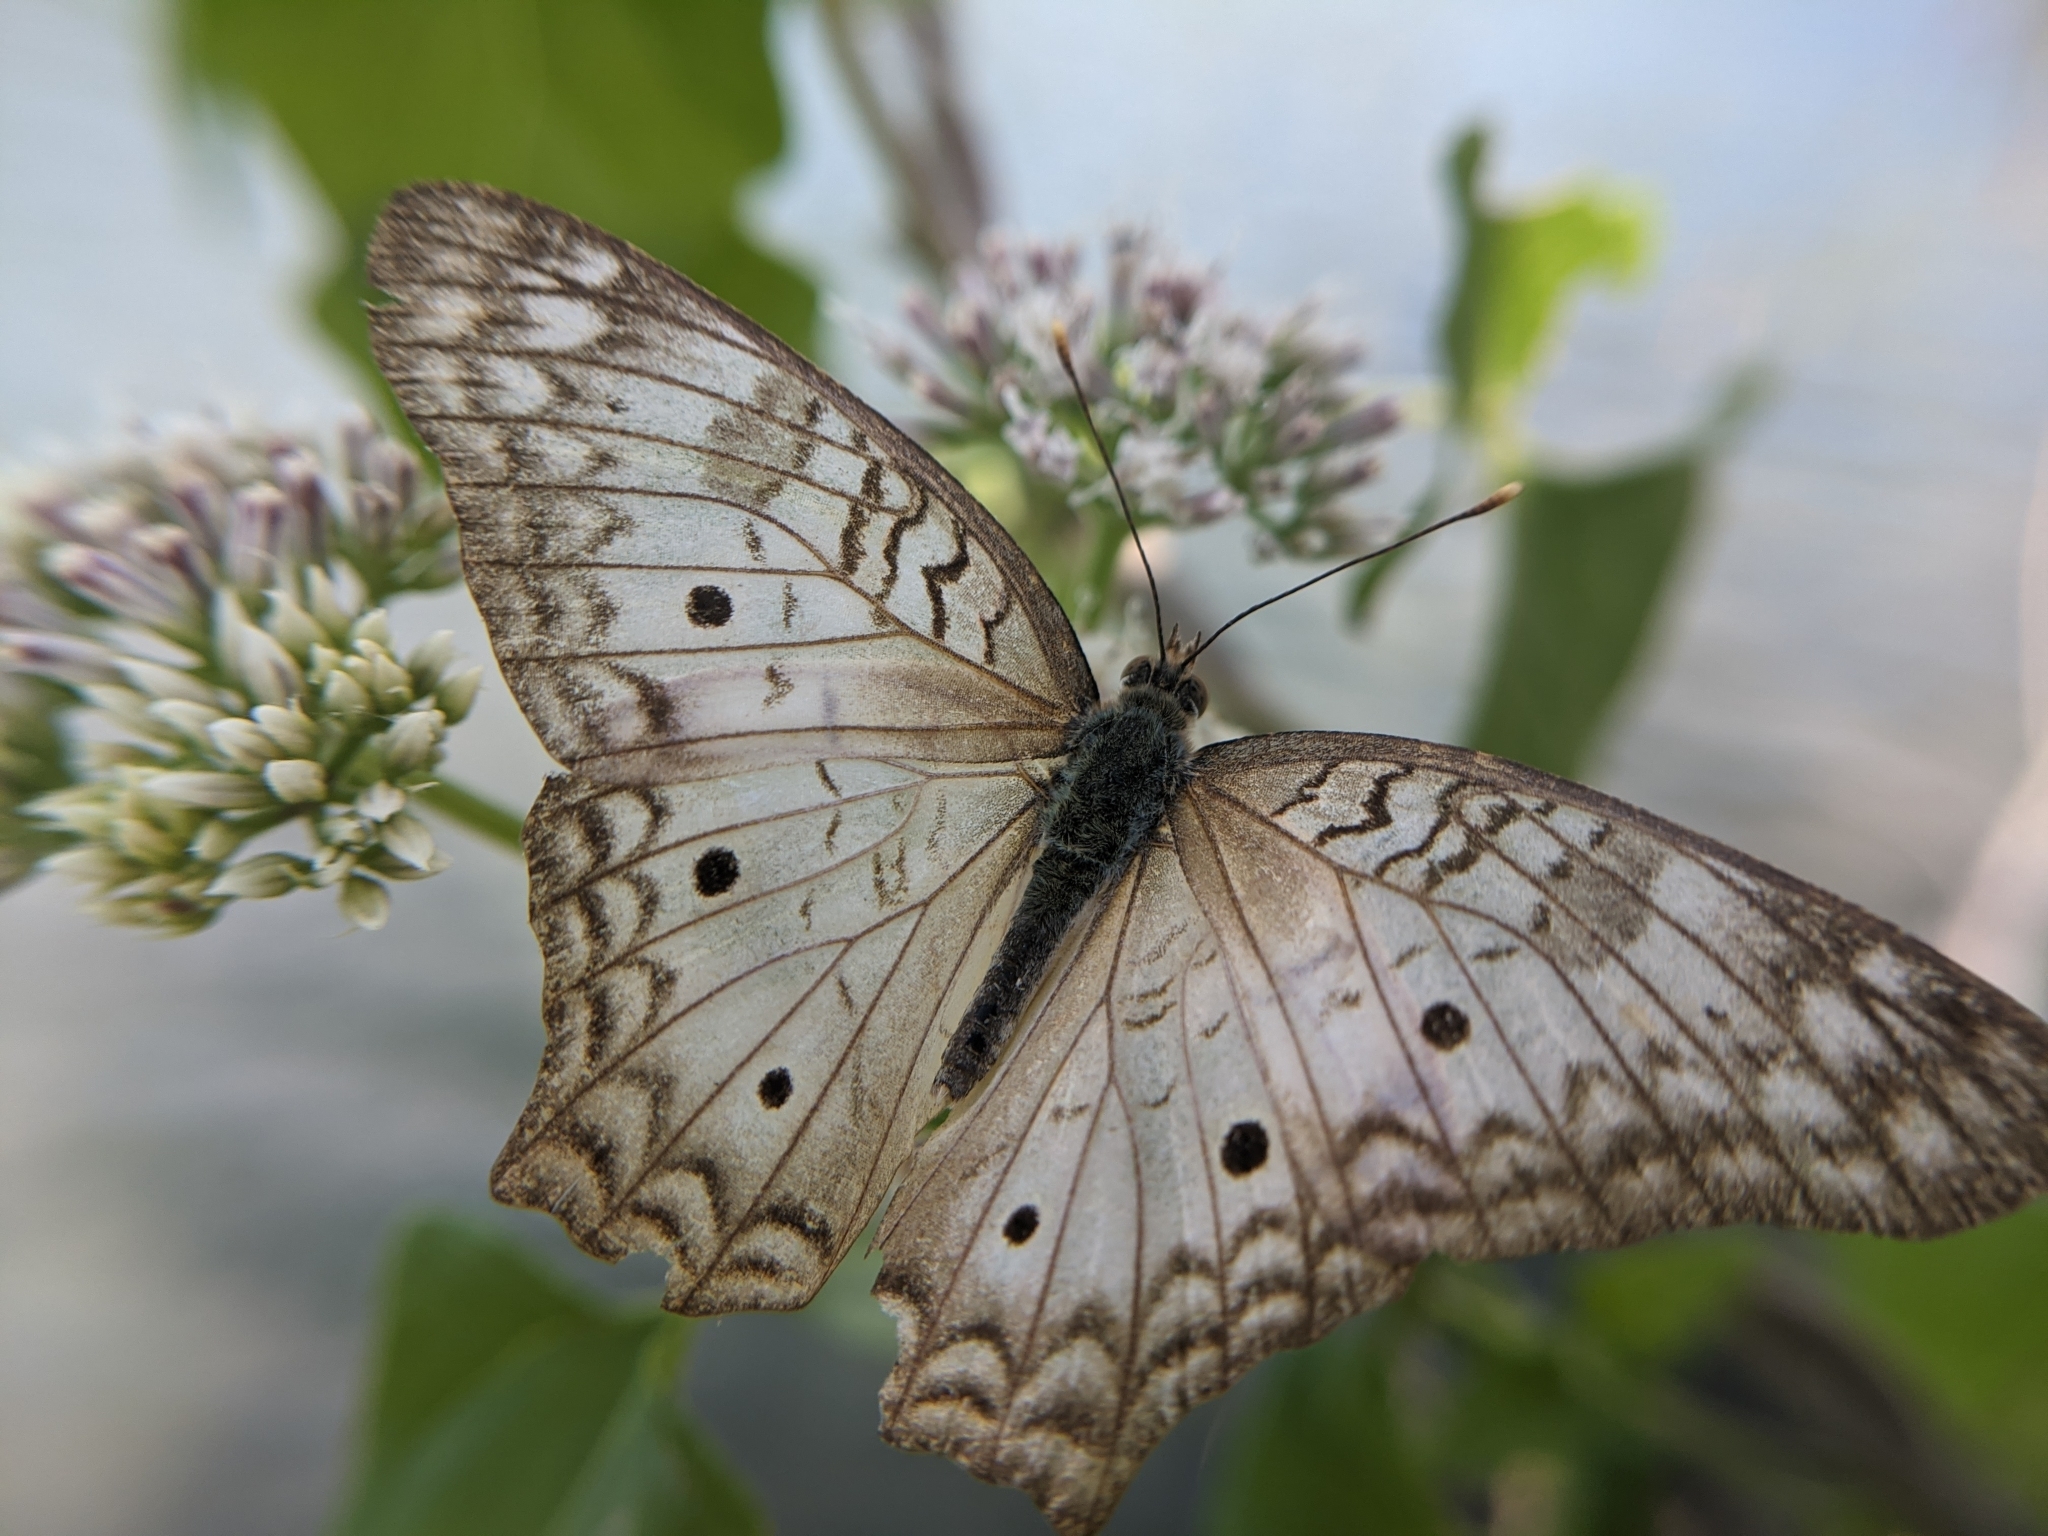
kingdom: Animalia
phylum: Arthropoda
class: Insecta
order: Lepidoptera
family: Nymphalidae
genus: Anartia
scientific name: Anartia jatrophae
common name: White peacock
